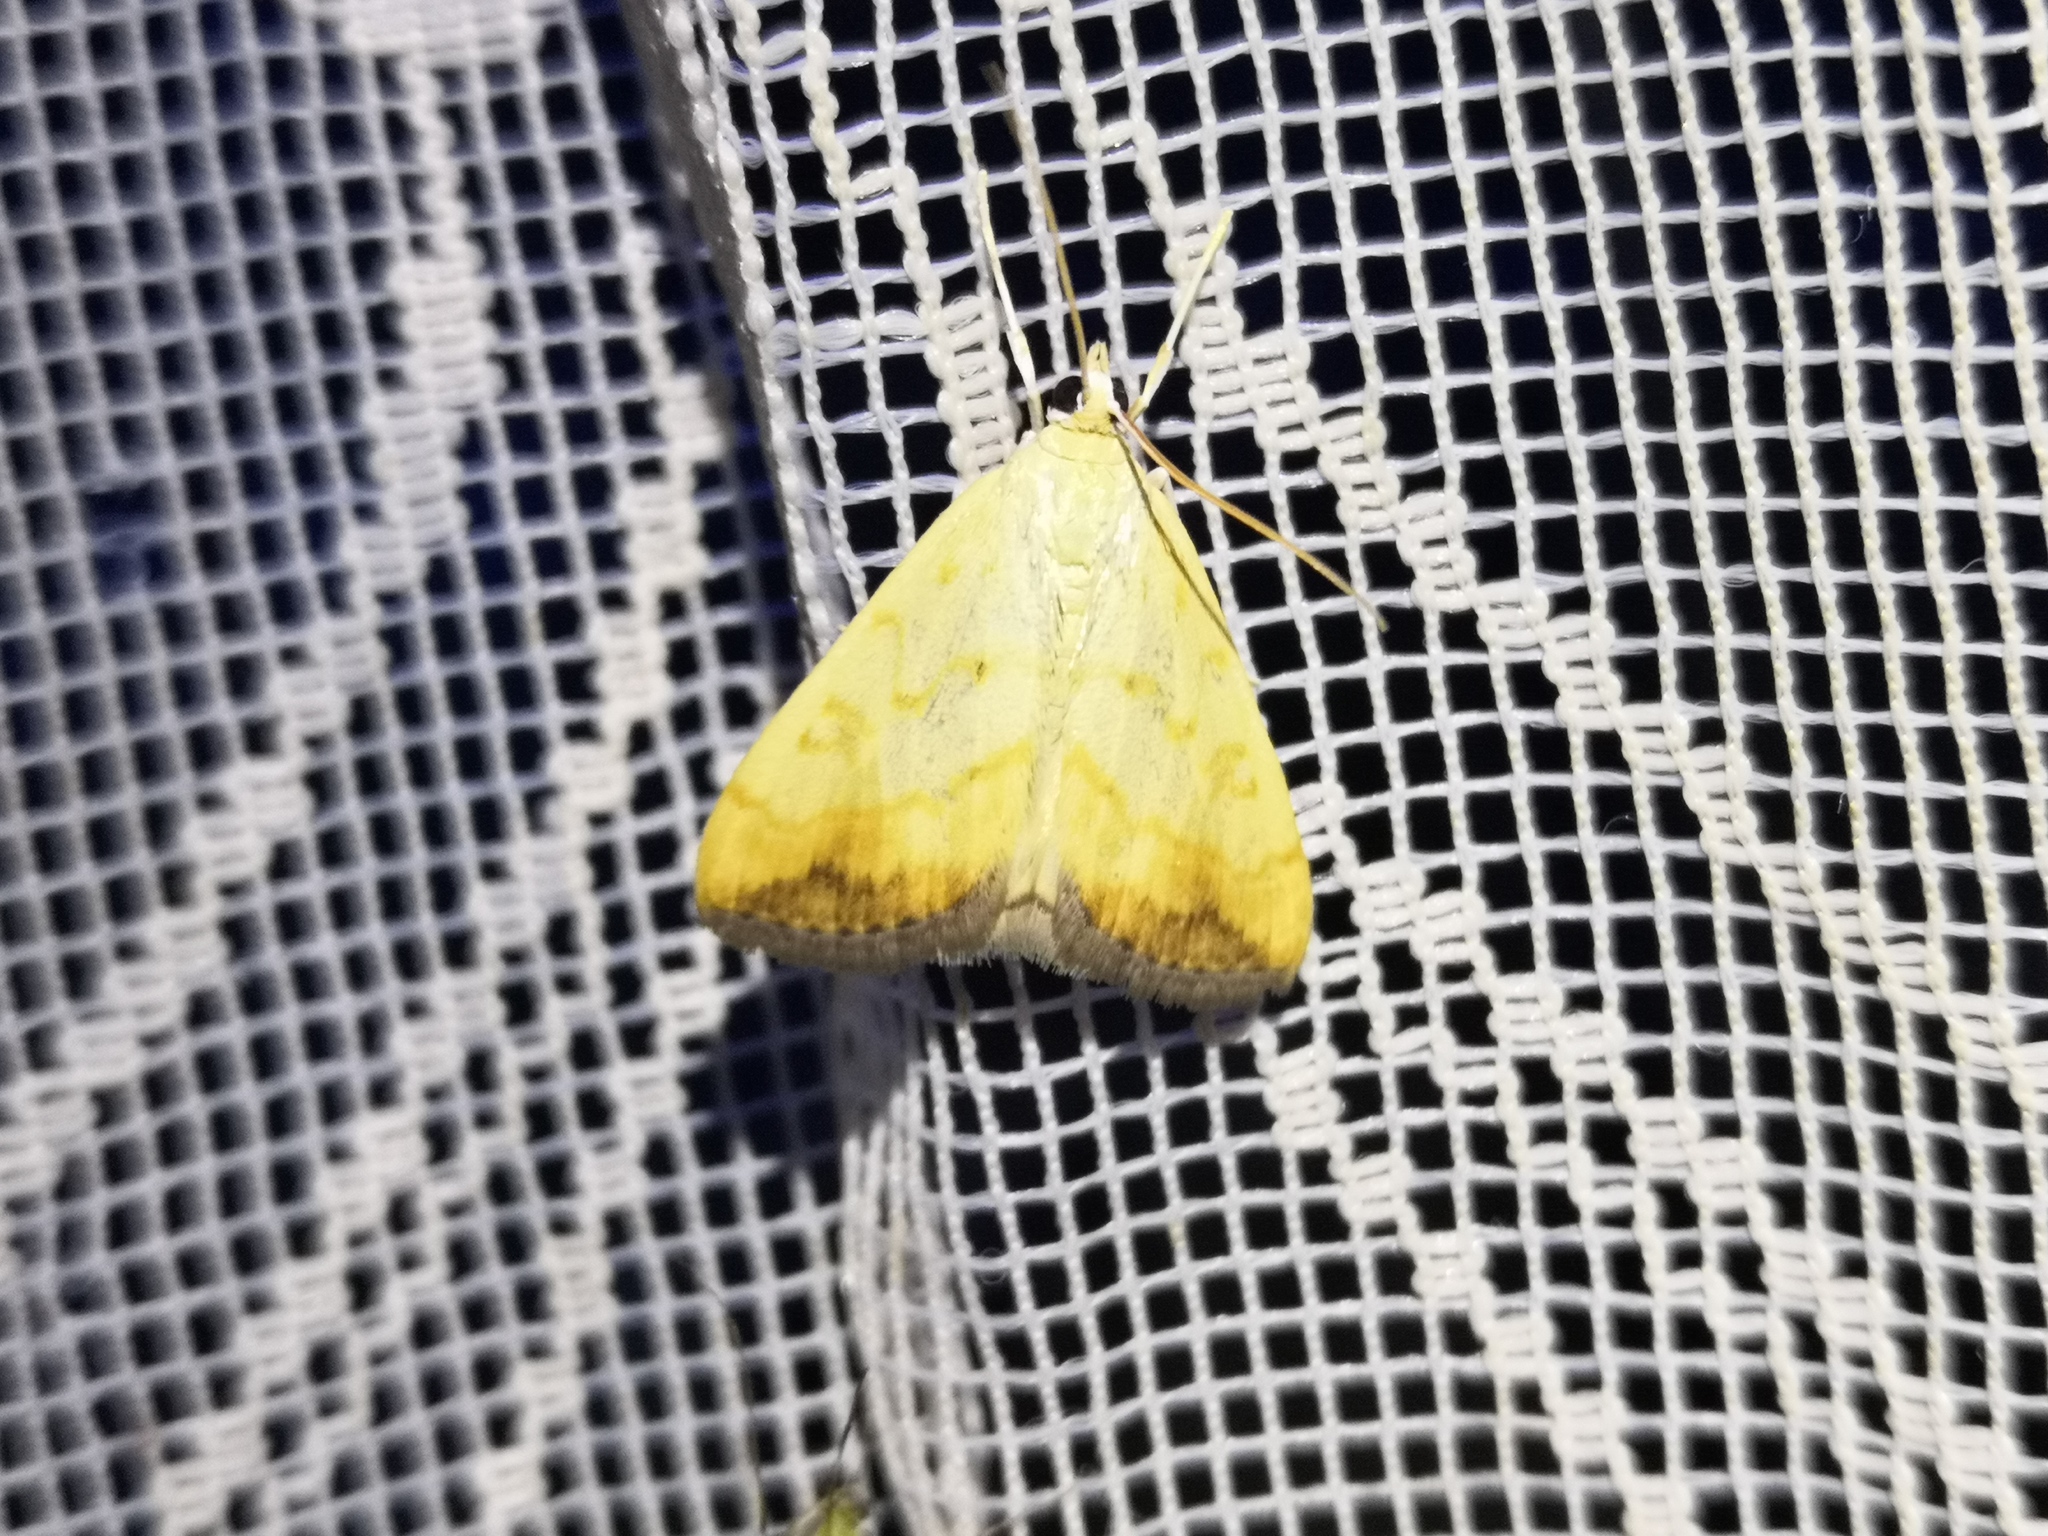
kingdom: Animalia
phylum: Arthropoda
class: Insecta
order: Lepidoptera
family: Crambidae
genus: Evergestis
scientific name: Evergestis extimalis
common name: Marbled yellow pearl
